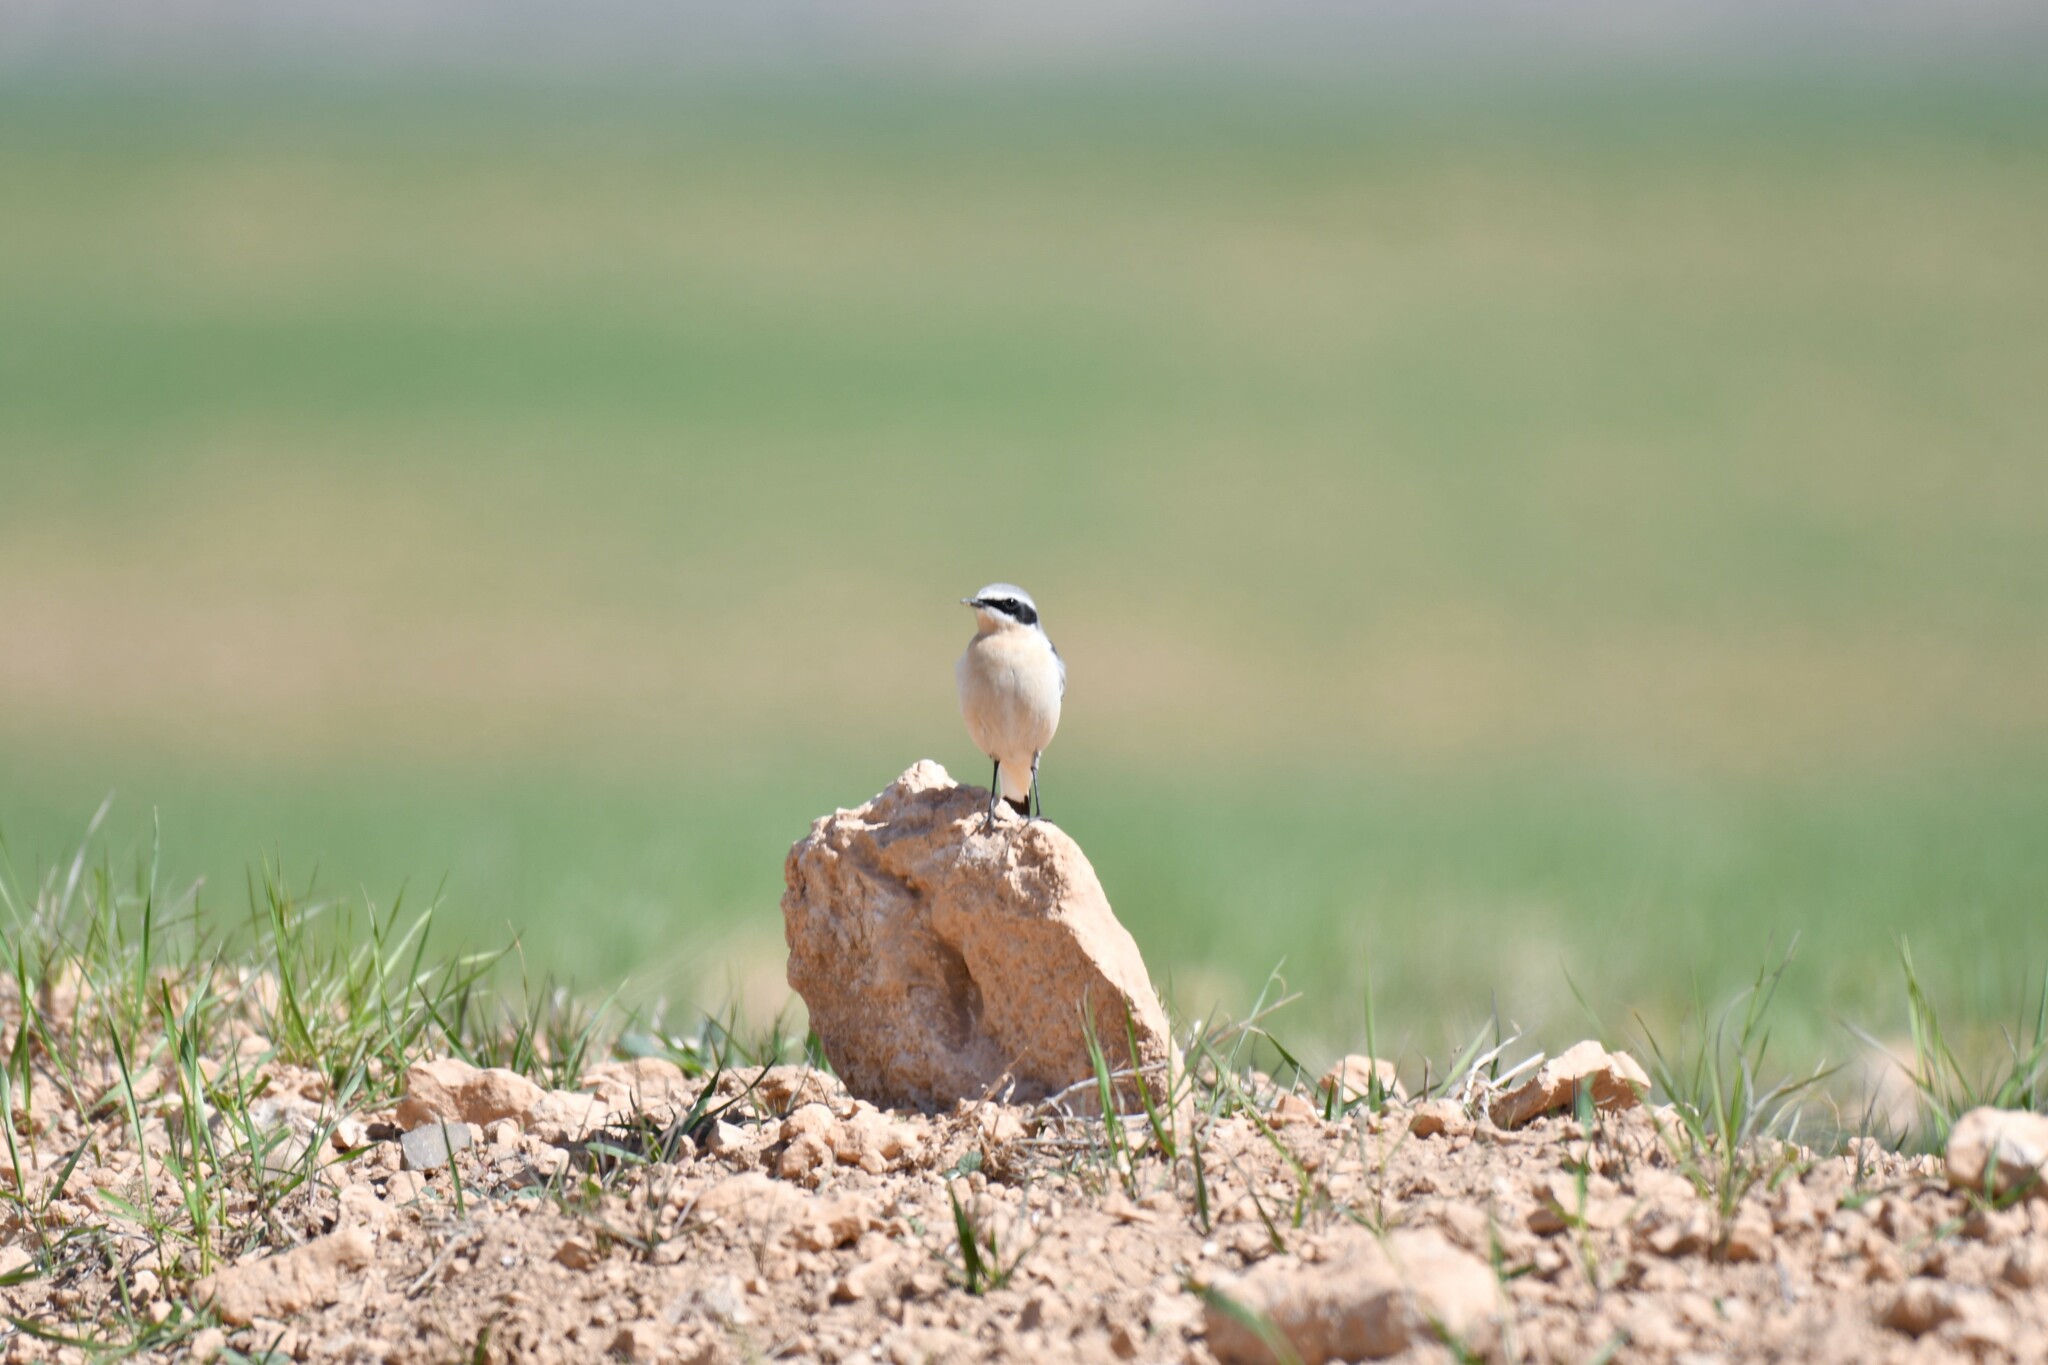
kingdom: Animalia
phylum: Chordata
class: Aves
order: Passeriformes
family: Muscicapidae
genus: Oenanthe
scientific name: Oenanthe oenanthe
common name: Northern wheatear
